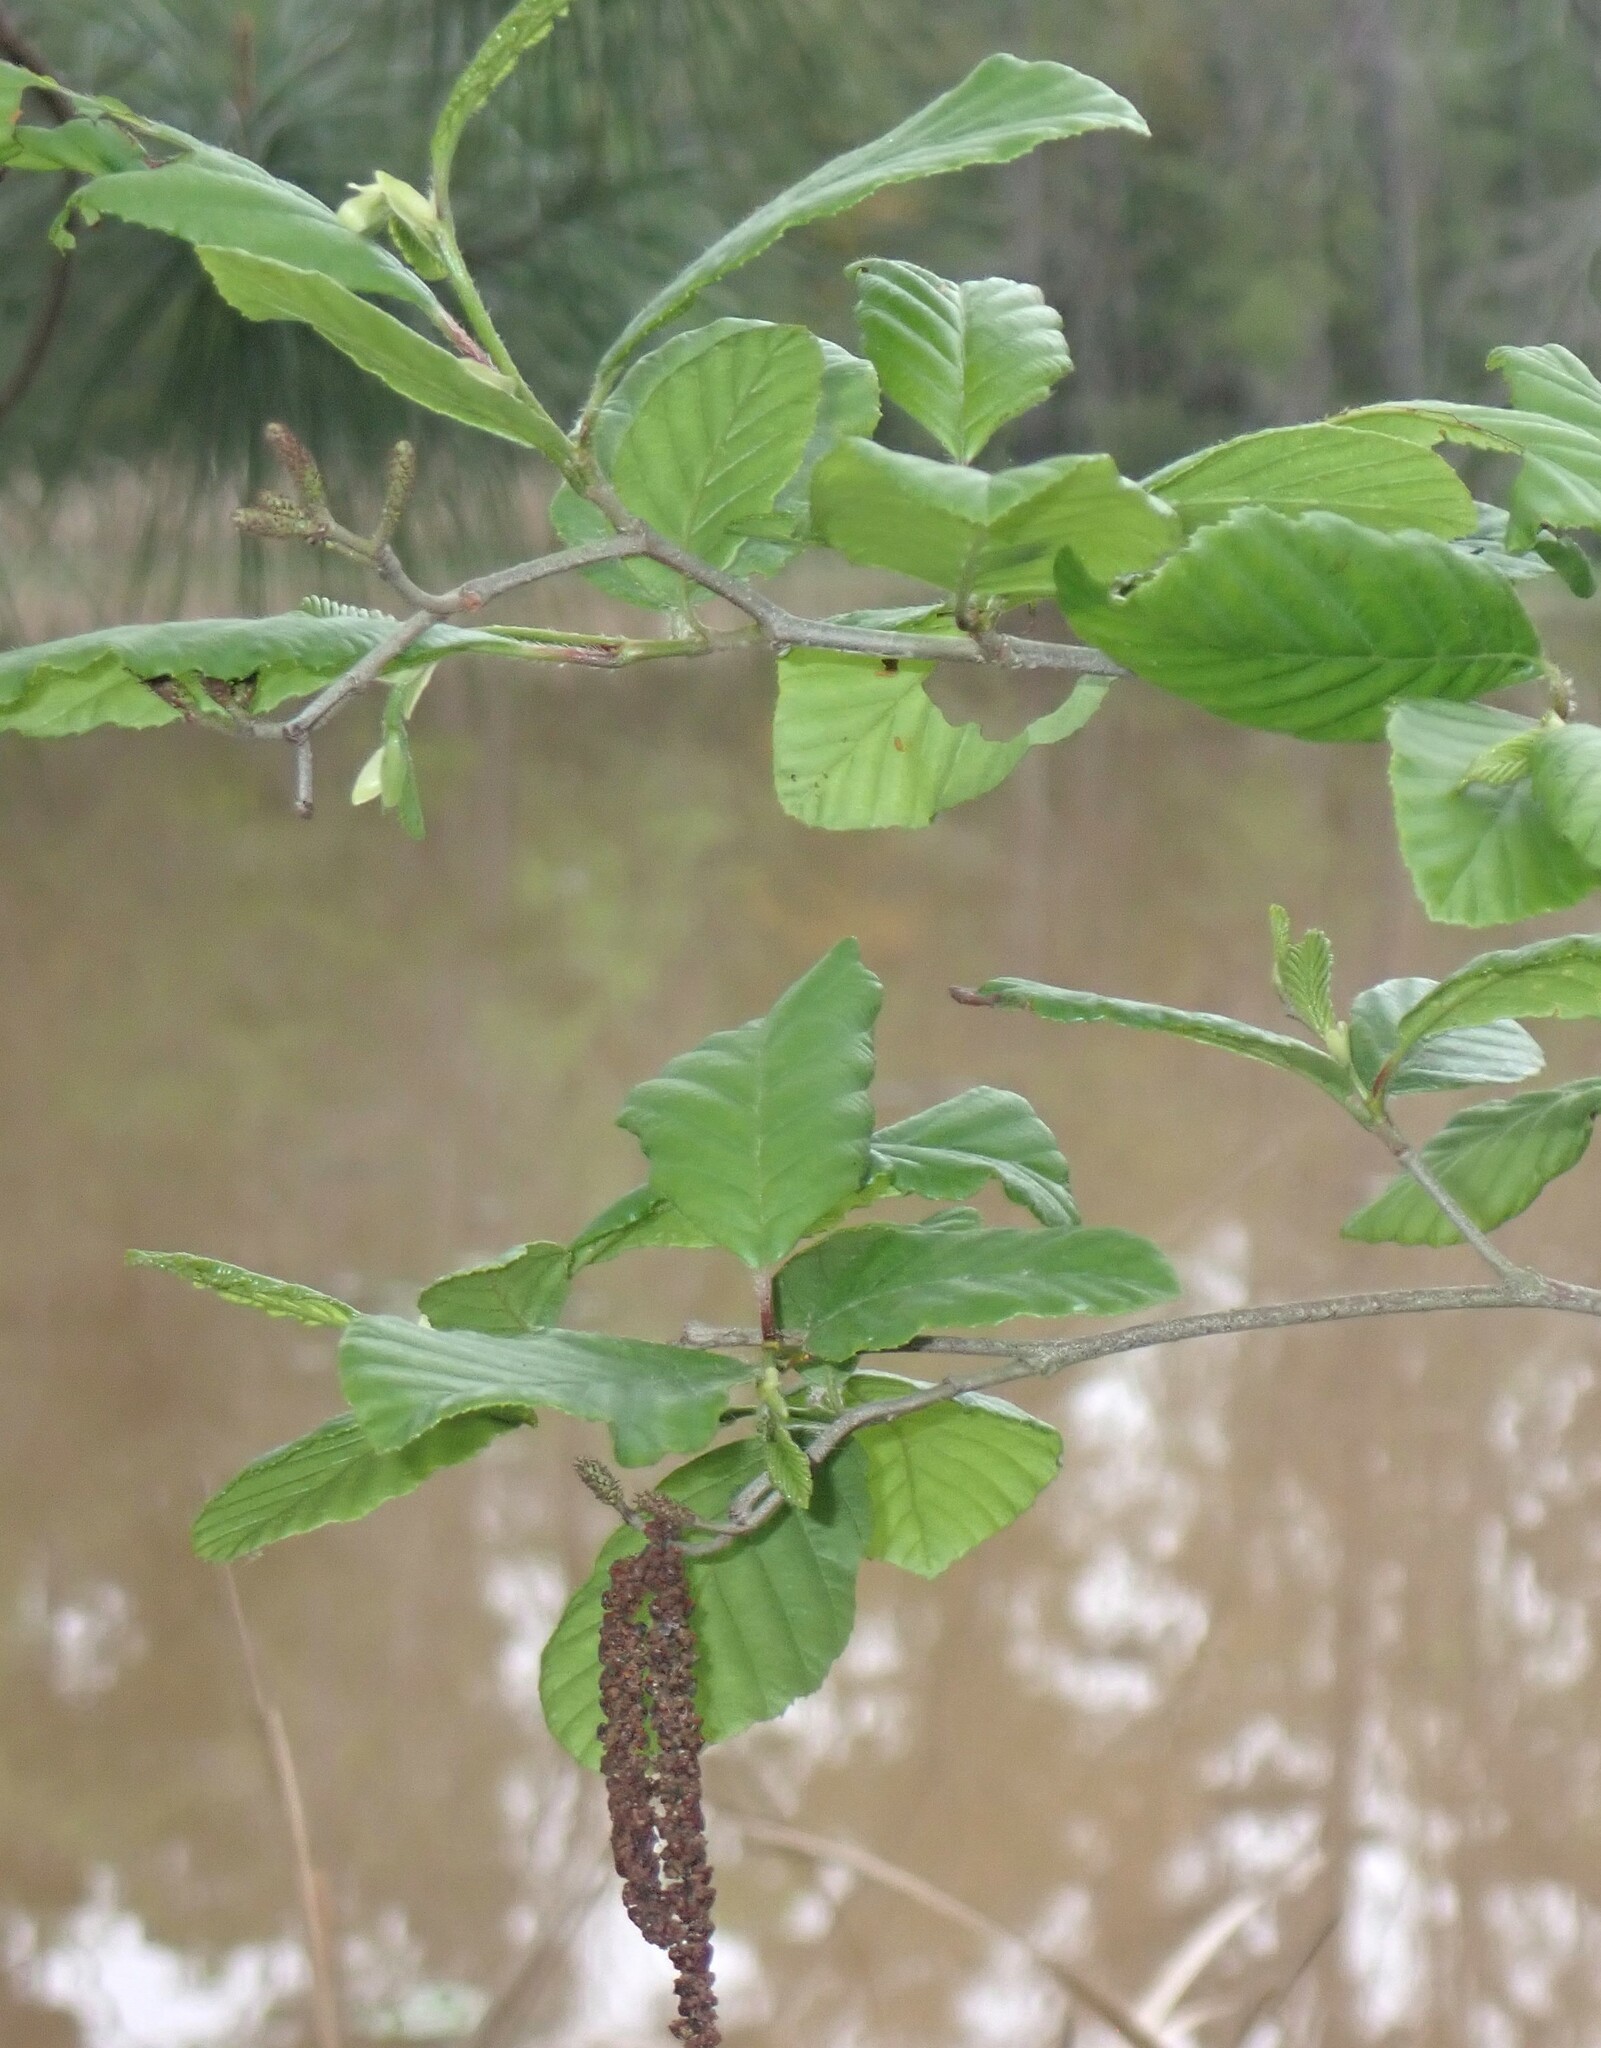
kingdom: Plantae
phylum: Tracheophyta
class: Magnoliopsida
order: Fagales
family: Betulaceae
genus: Alnus
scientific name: Alnus serrulata
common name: Hazel alder
